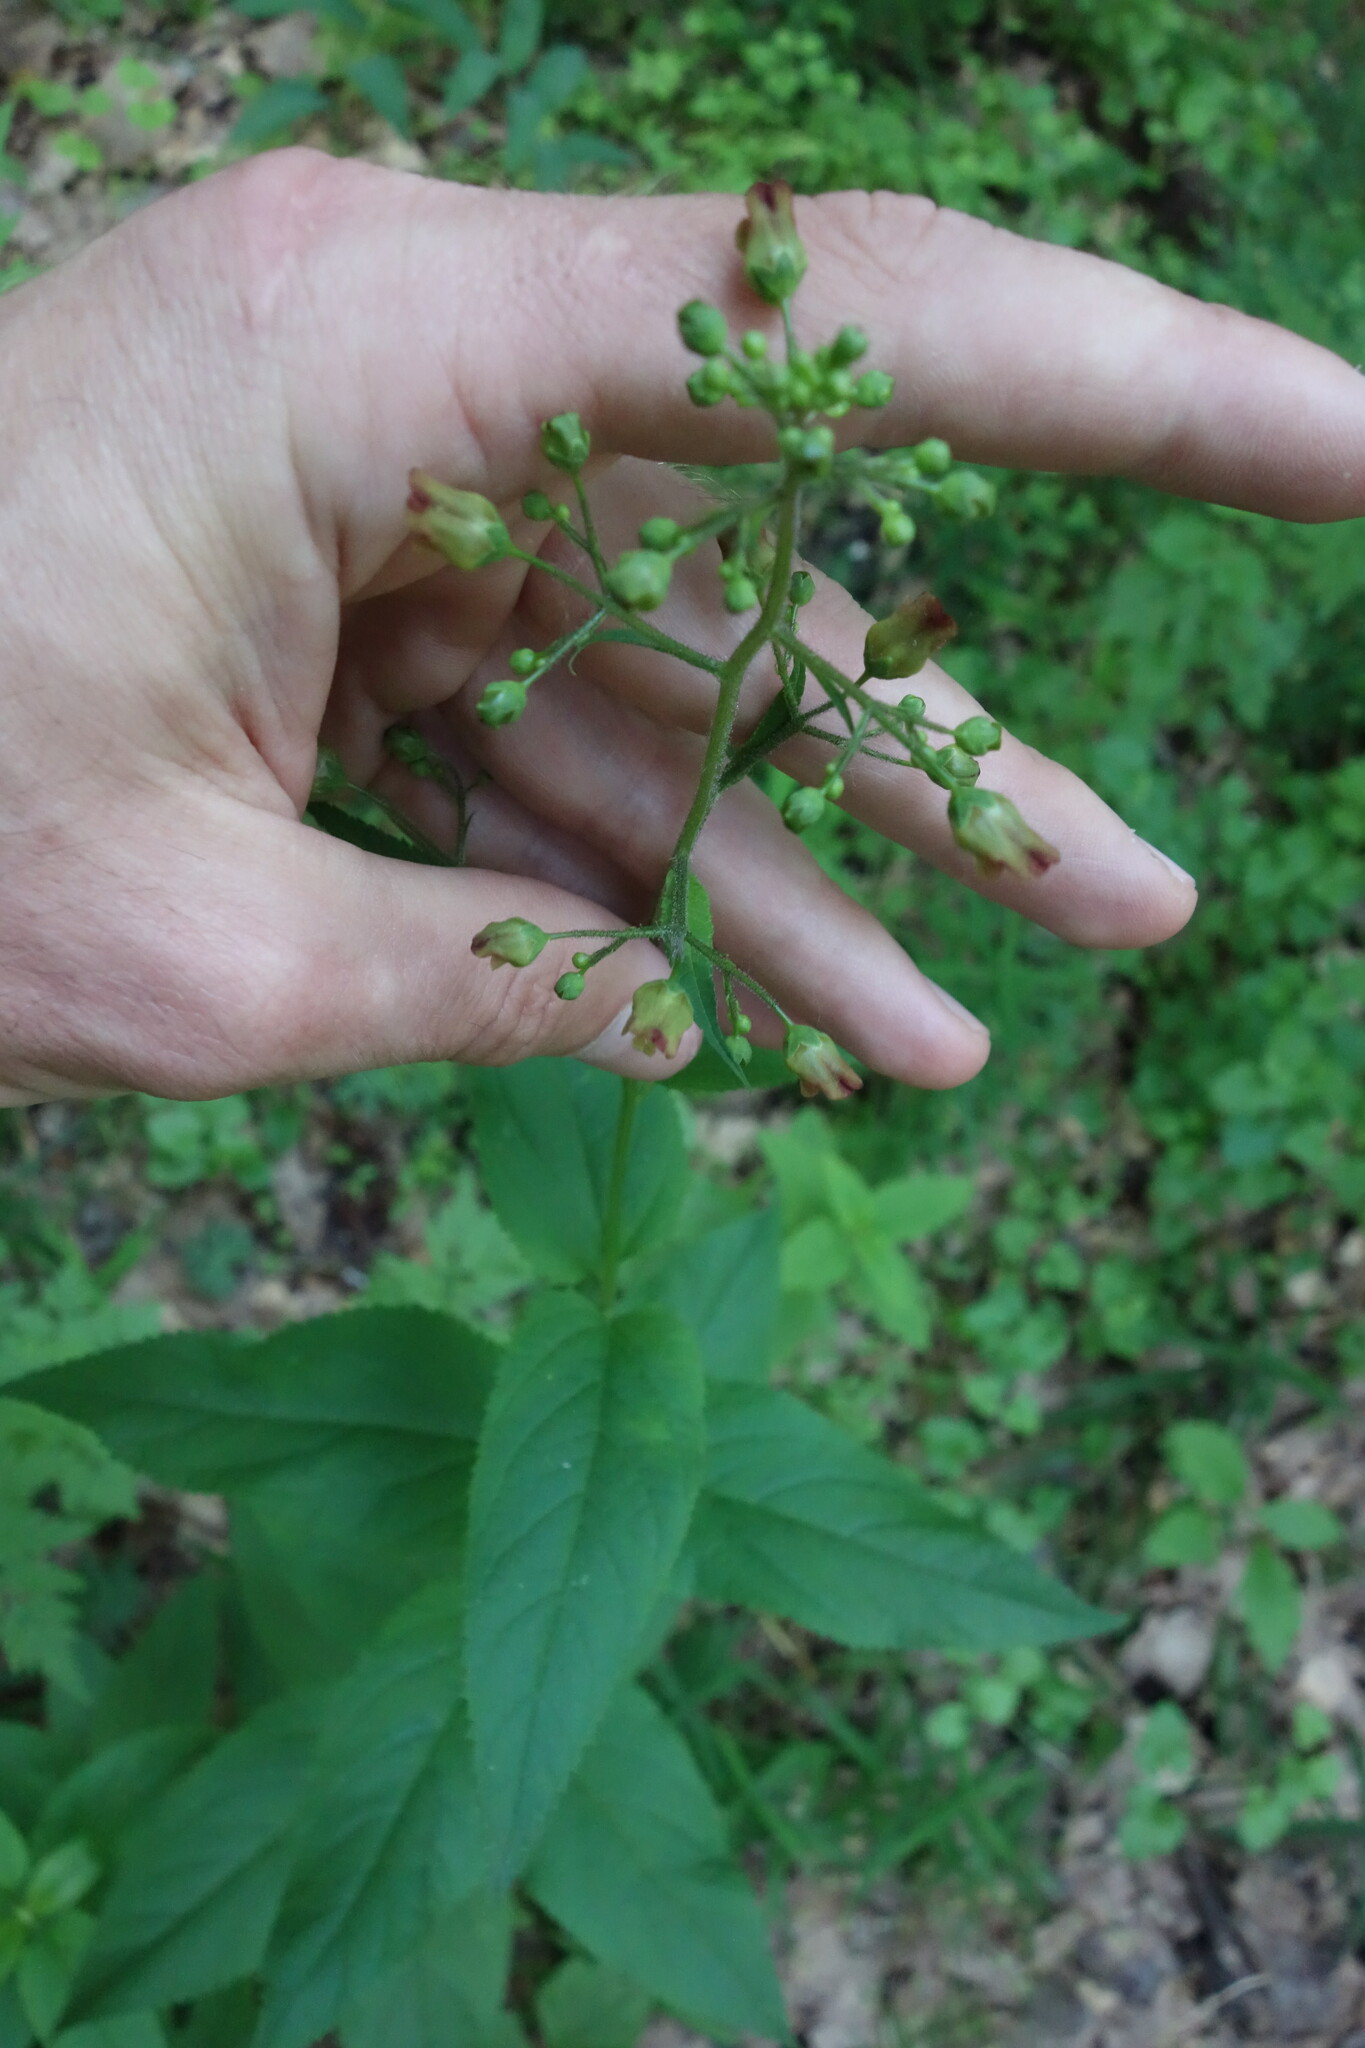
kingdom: Plantae
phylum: Tracheophyta
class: Magnoliopsida
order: Lamiales
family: Scrophulariaceae
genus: Scrophularia
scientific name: Scrophularia nodosa
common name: Common figwort
